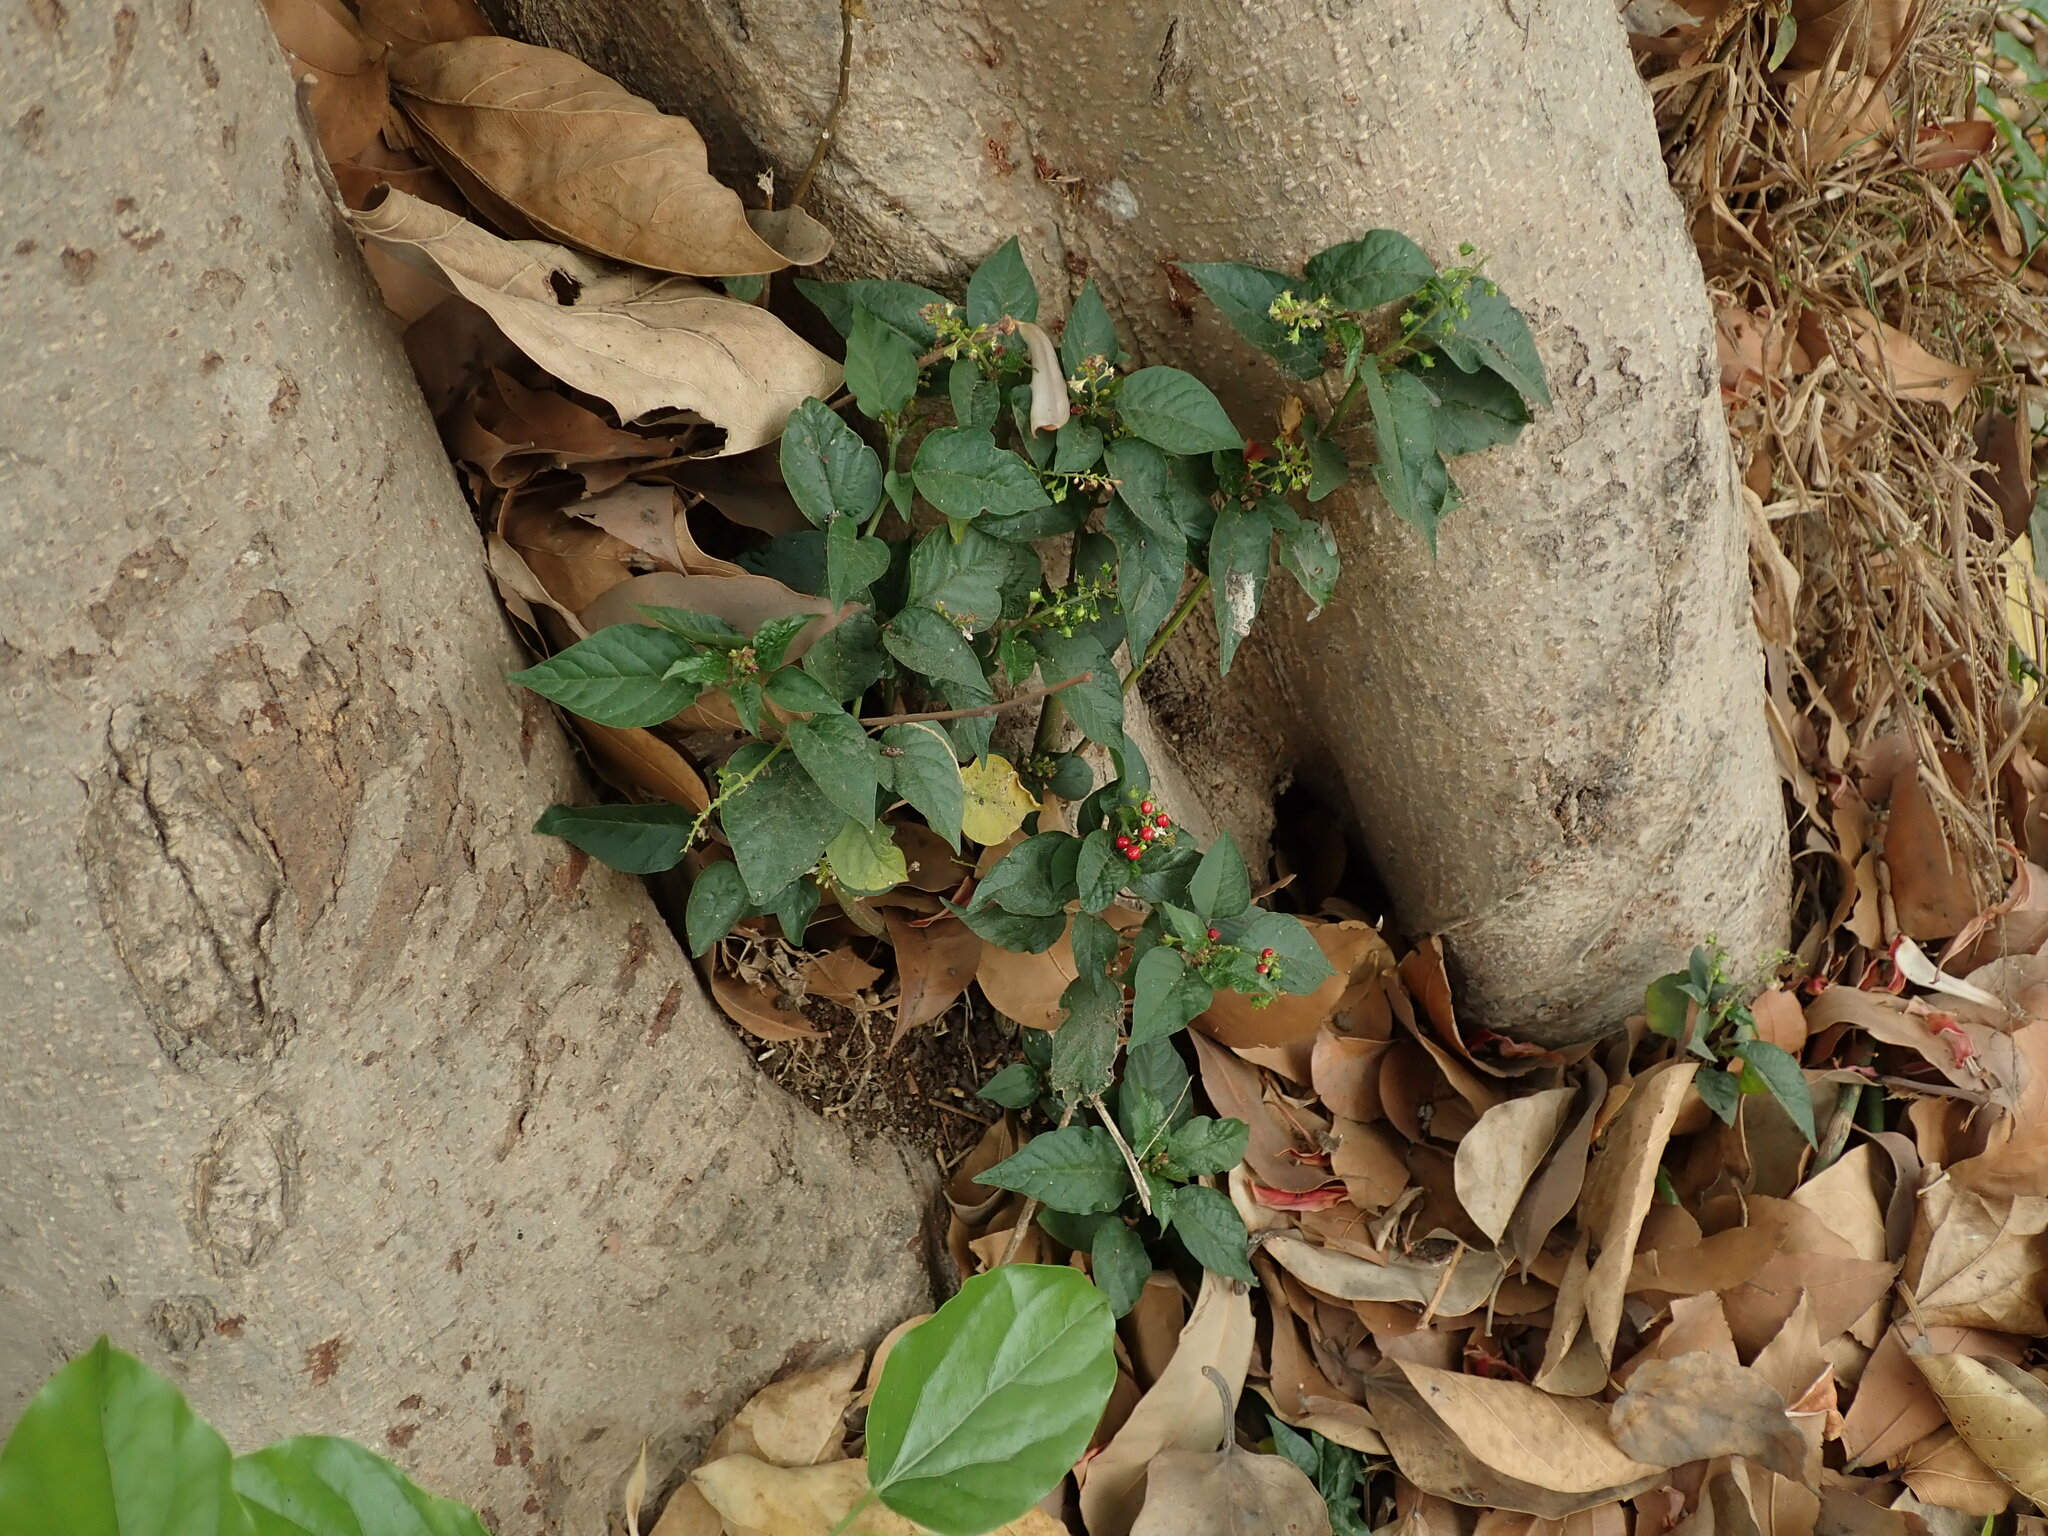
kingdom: Plantae
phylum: Tracheophyta
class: Magnoliopsida
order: Caryophyllales
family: Phytolaccaceae
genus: Rivina
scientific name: Rivina humilis
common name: Rougeplant
